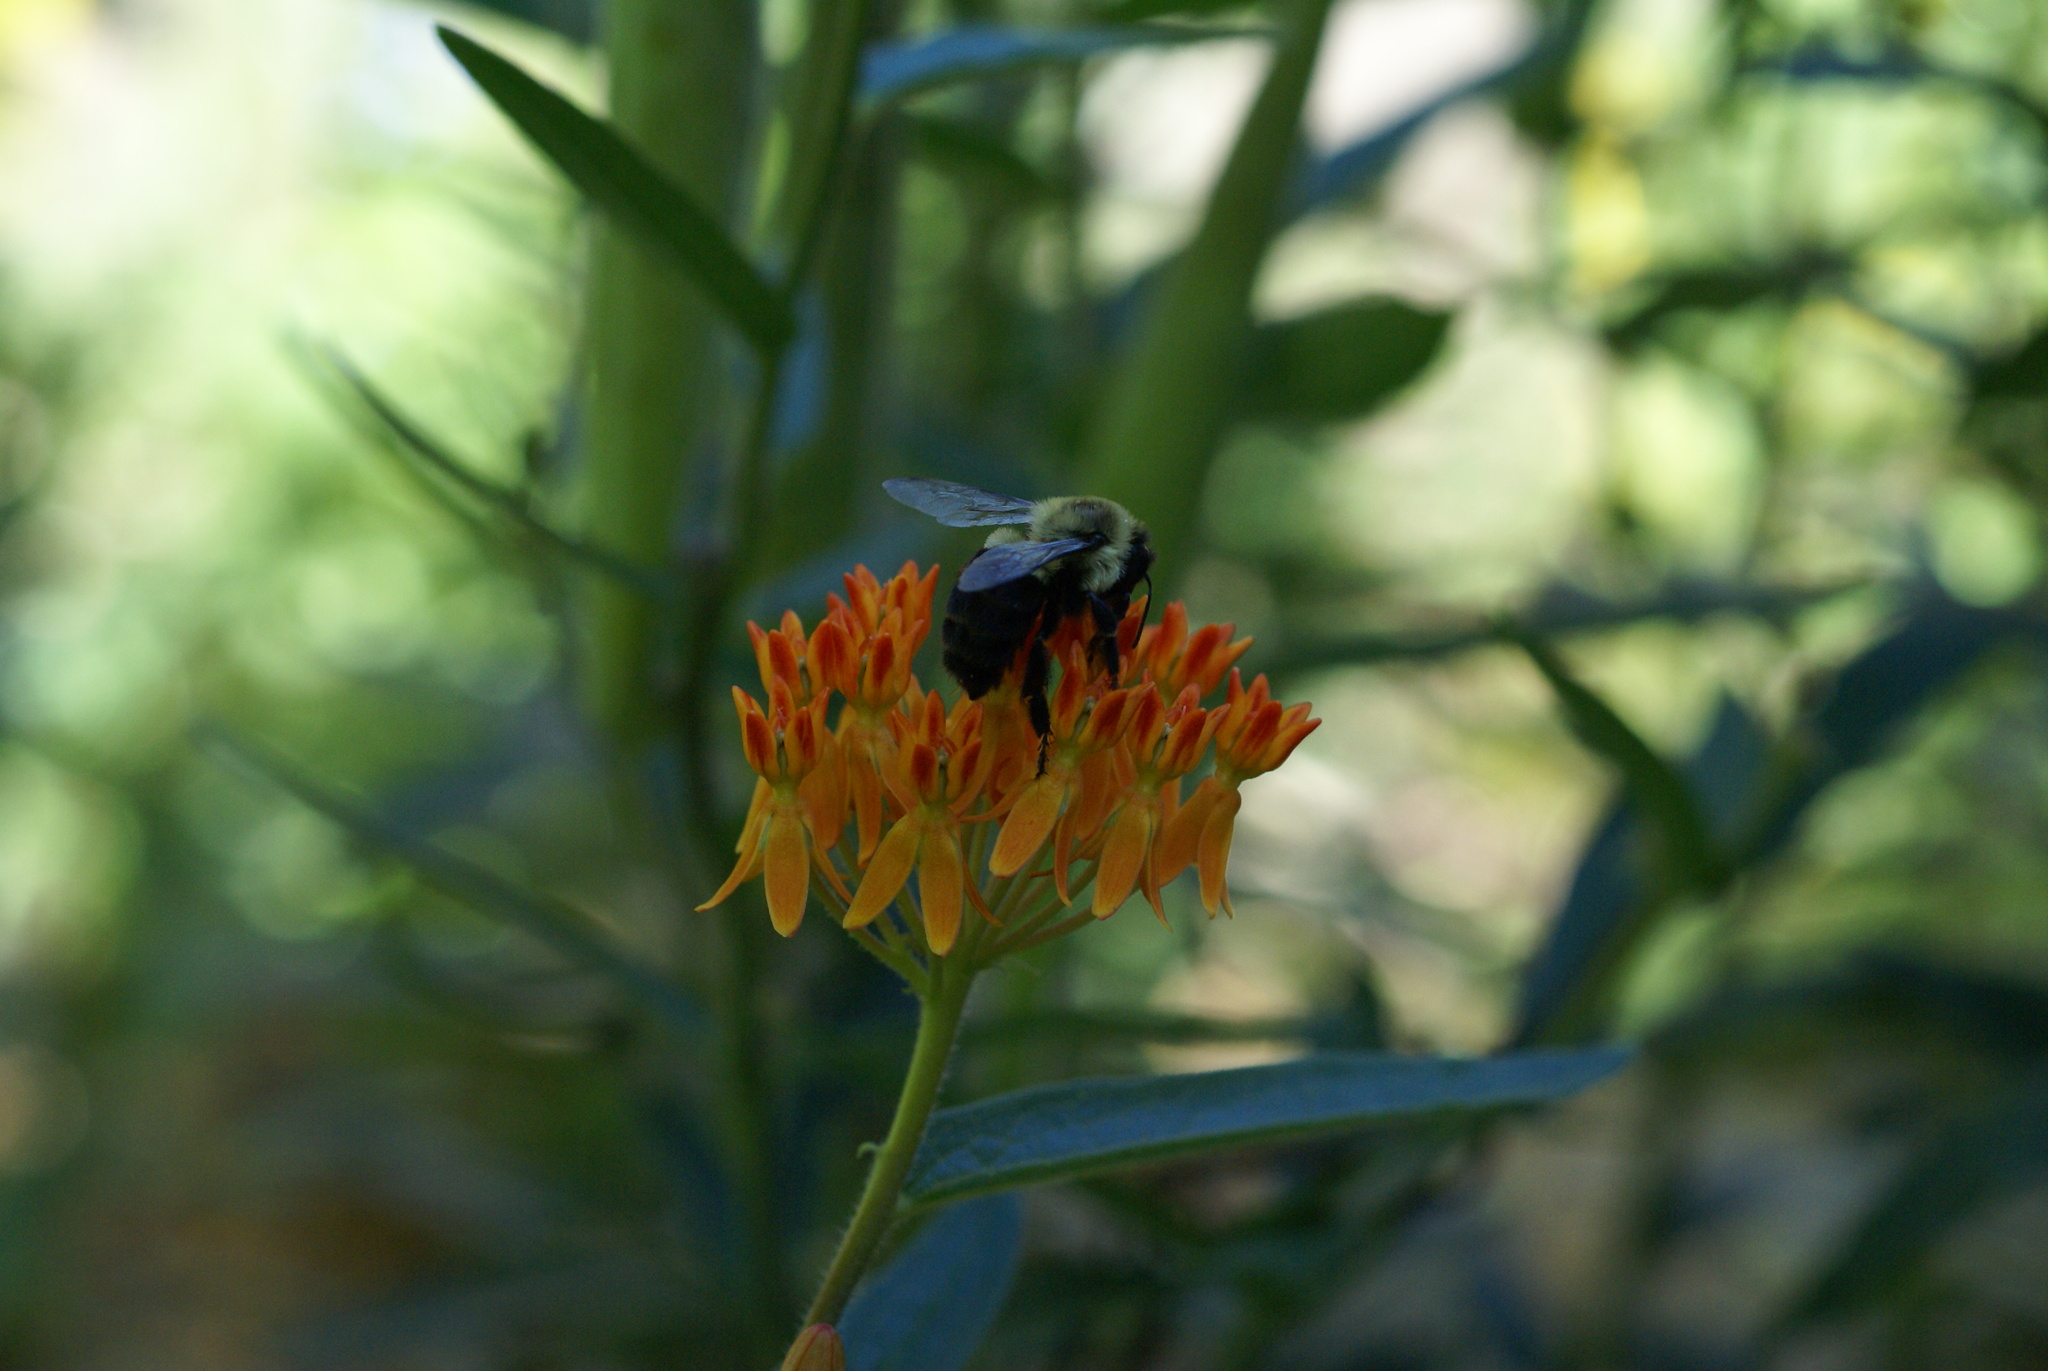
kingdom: Animalia
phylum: Arthropoda
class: Insecta
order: Hymenoptera
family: Apidae
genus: Bombus
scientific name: Bombus impatiens
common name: Common eastern bumble bee
